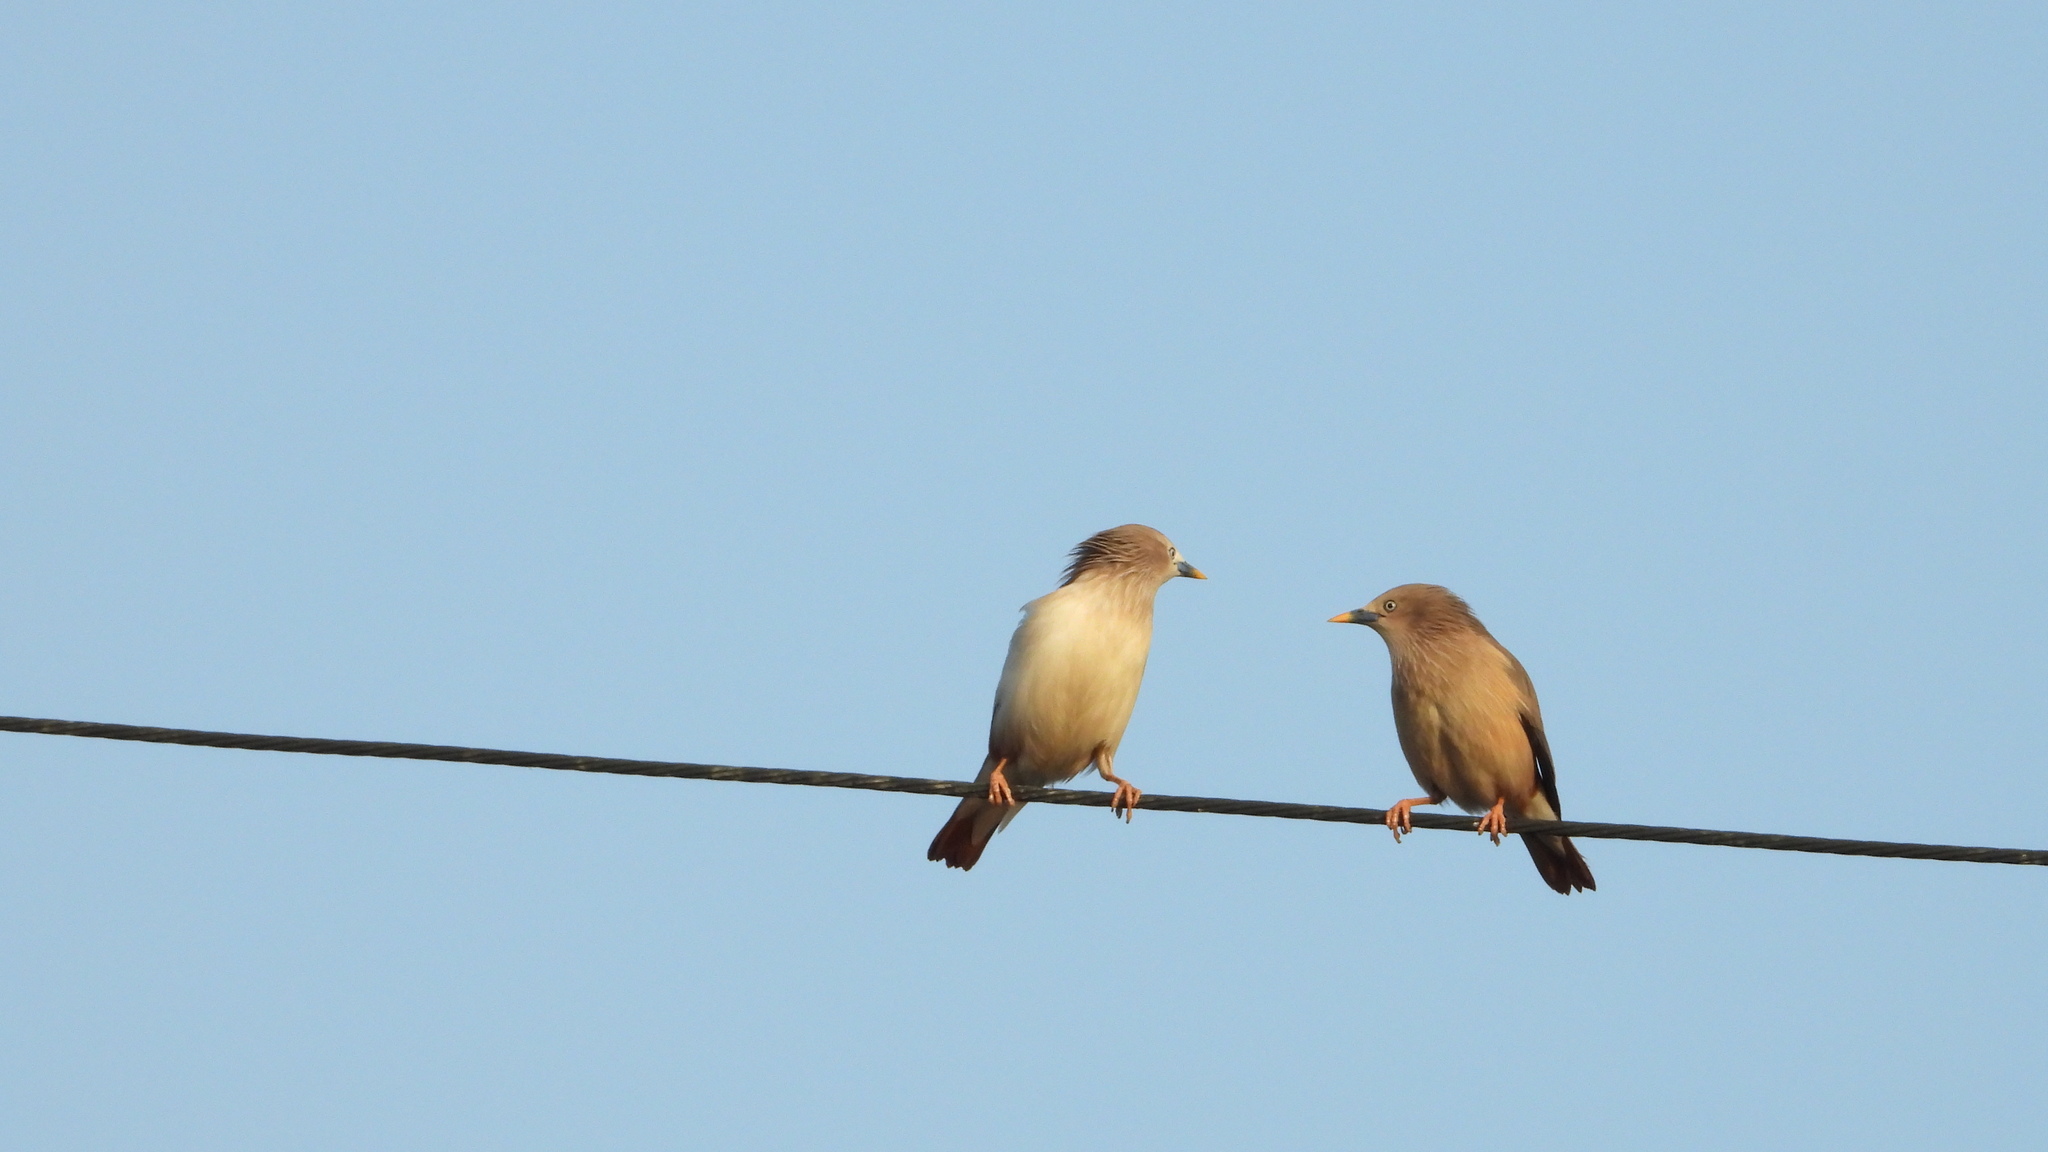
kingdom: Animalia
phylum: Chordata
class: Aves
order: Passeriformes
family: Sturnidae
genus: Sturnia
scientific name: Sturnia malabarica
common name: Chestnut-tailed starling
